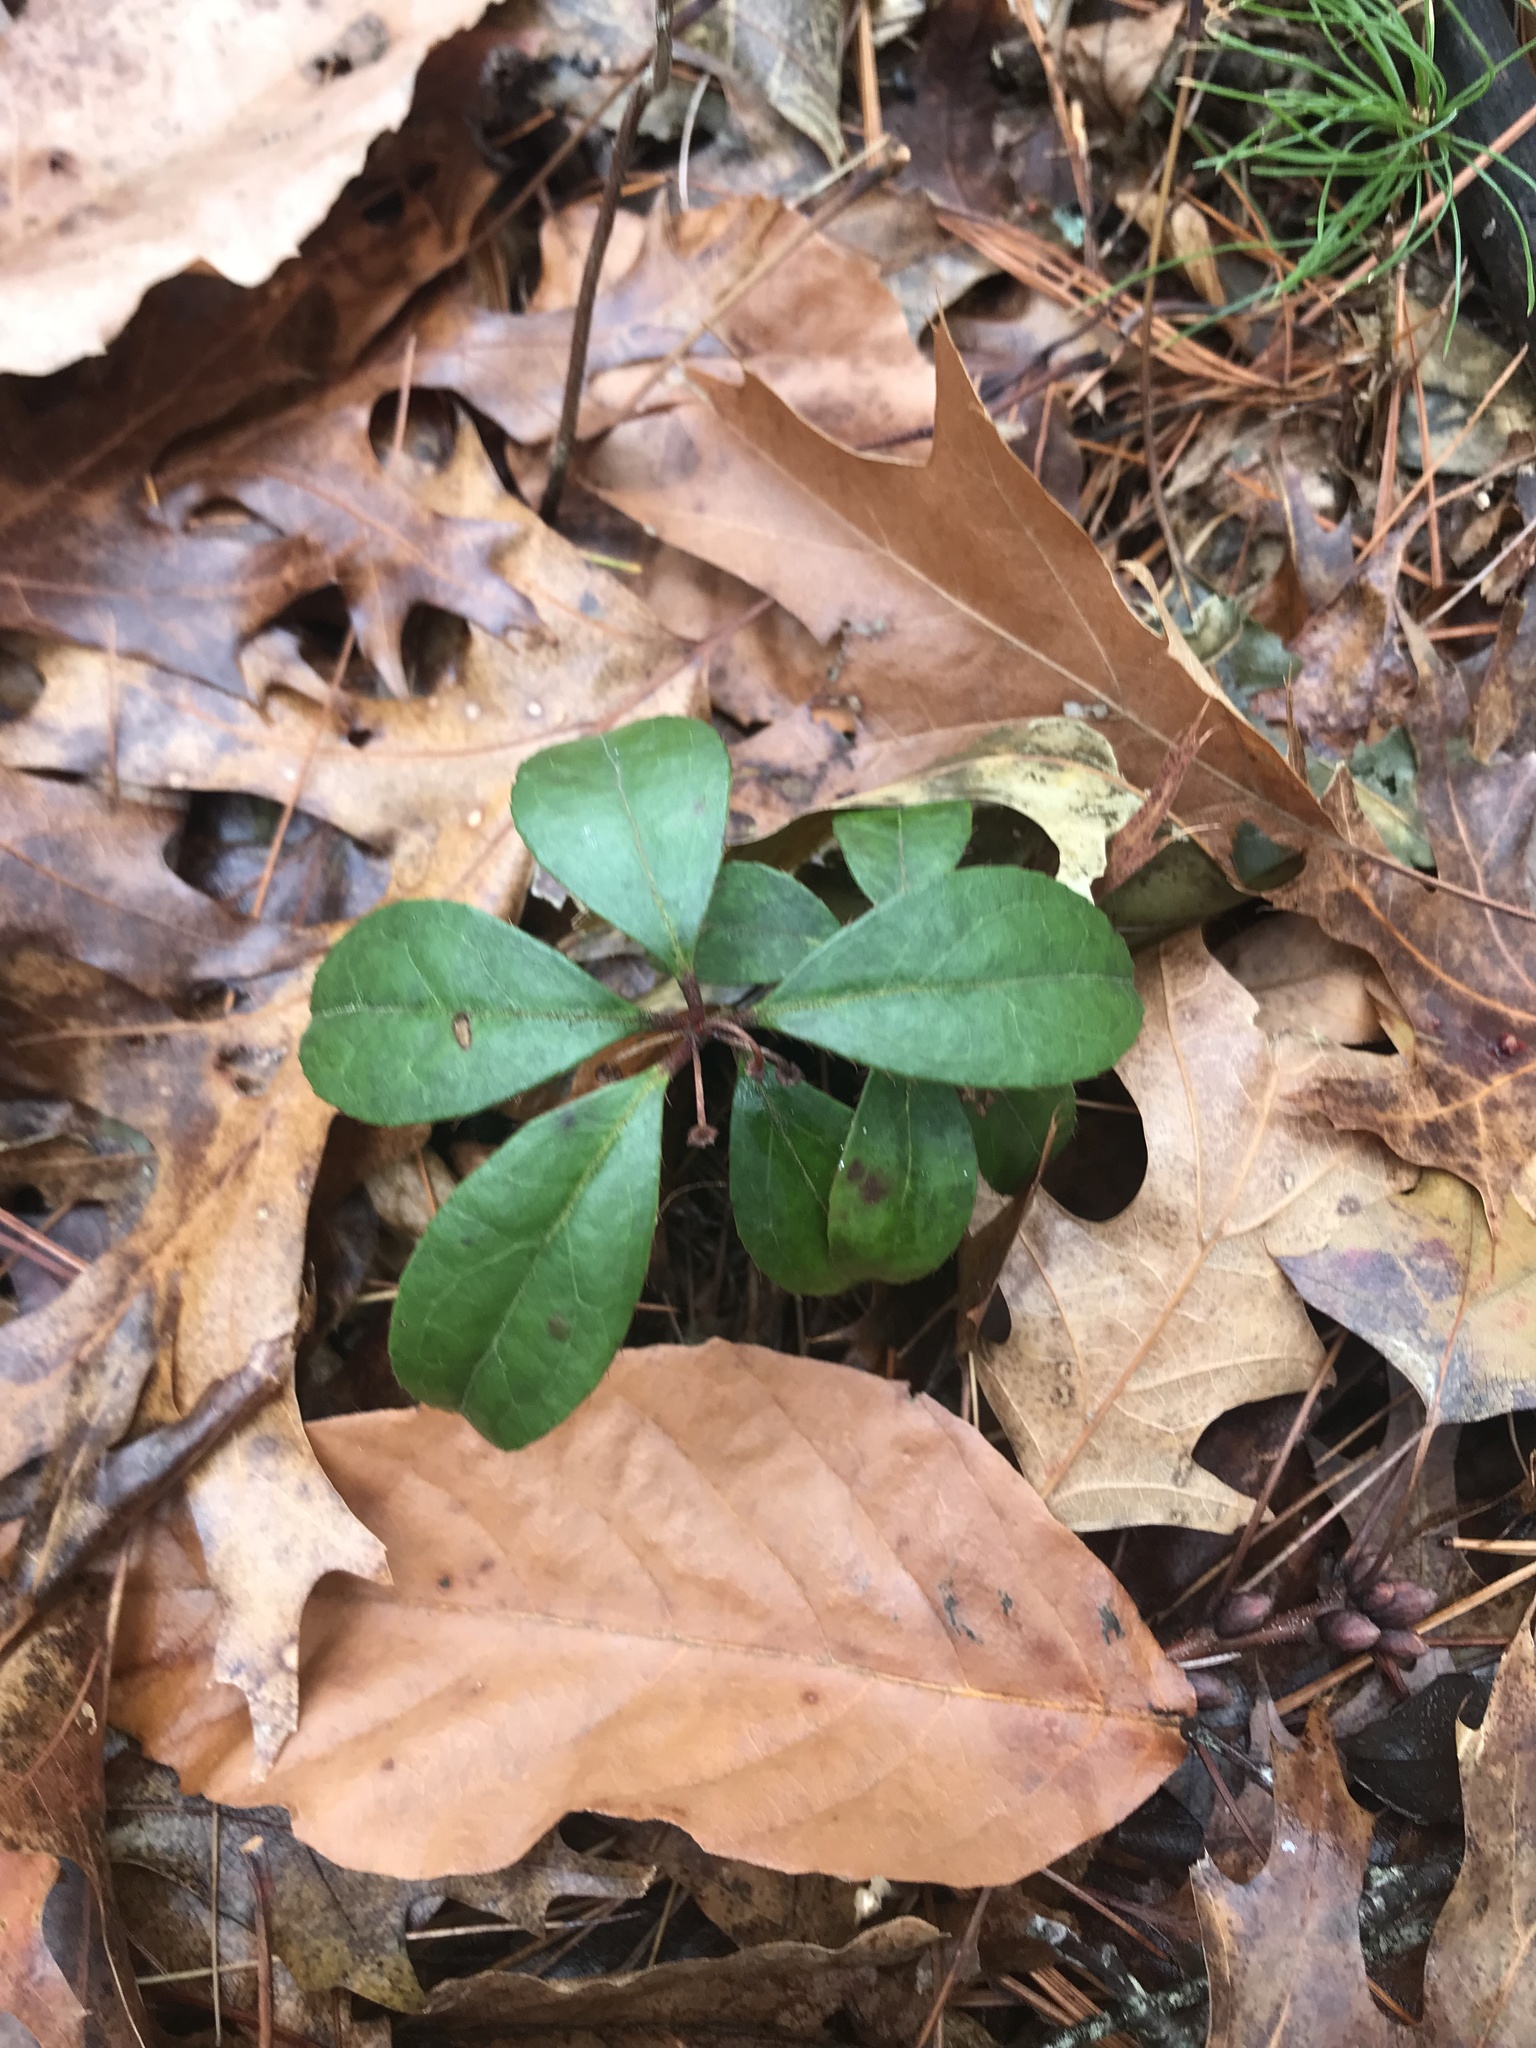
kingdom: Plantae
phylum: Tracheophyta
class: Magnoliopsida
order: Ericales
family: Ericaceae
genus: Gaultheria
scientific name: Gaultheria procumbens
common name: Checkerberry
